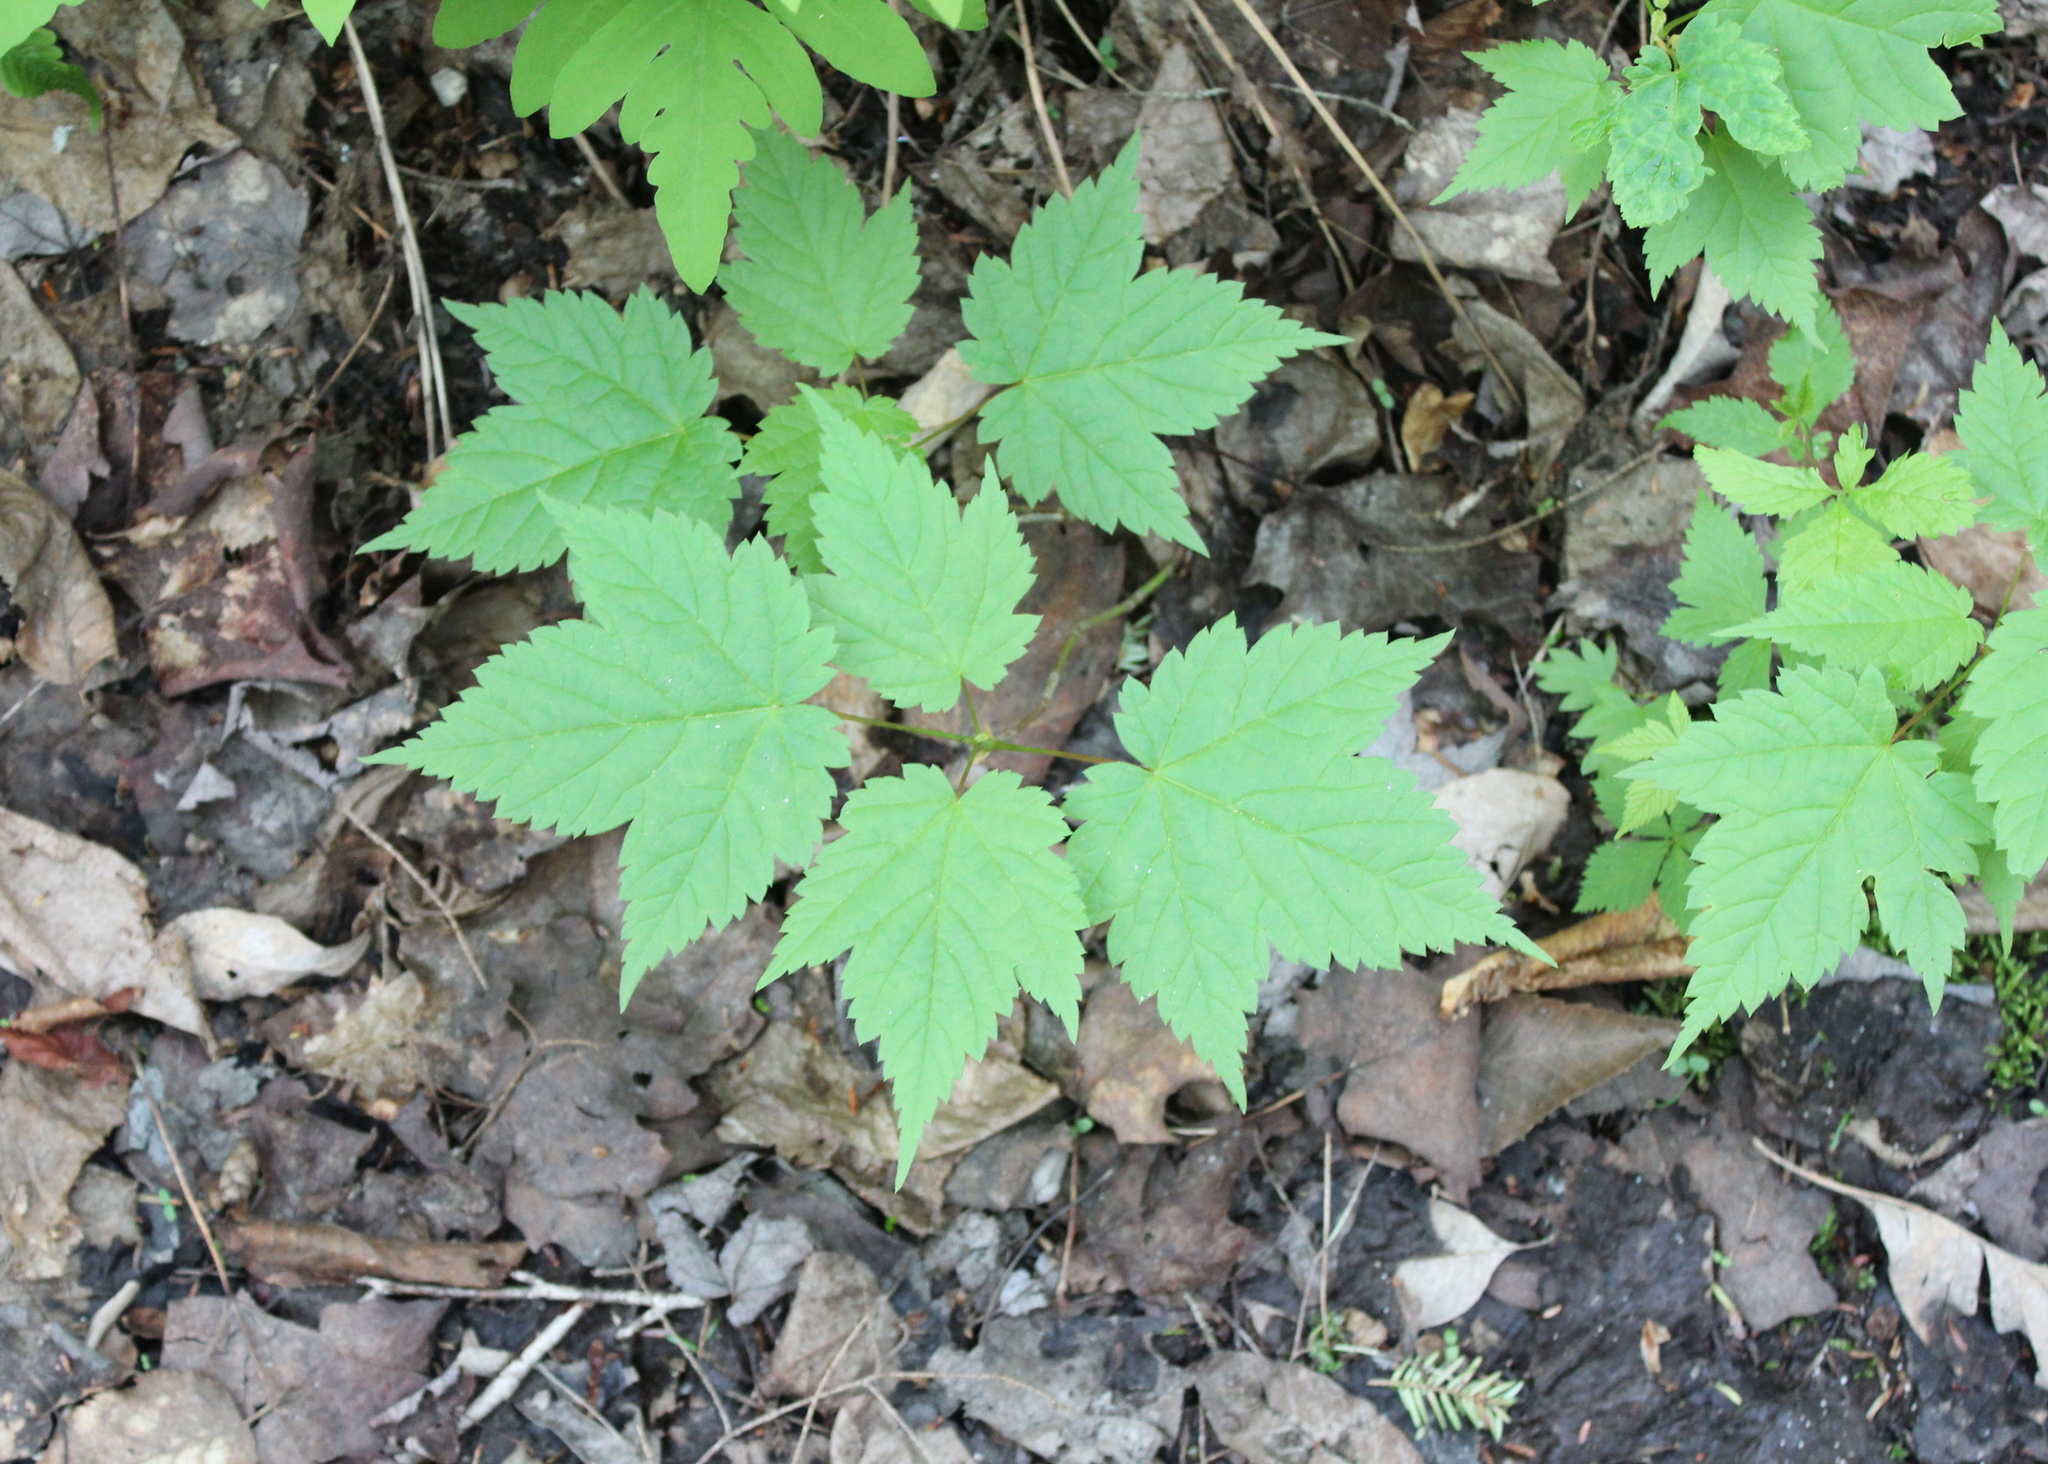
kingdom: Plantae
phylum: Tracheophyta
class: Magnoliopsida
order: Sapindales
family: Sapindaceae
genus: Acer
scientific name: Acer spicatum
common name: Mountain maple
